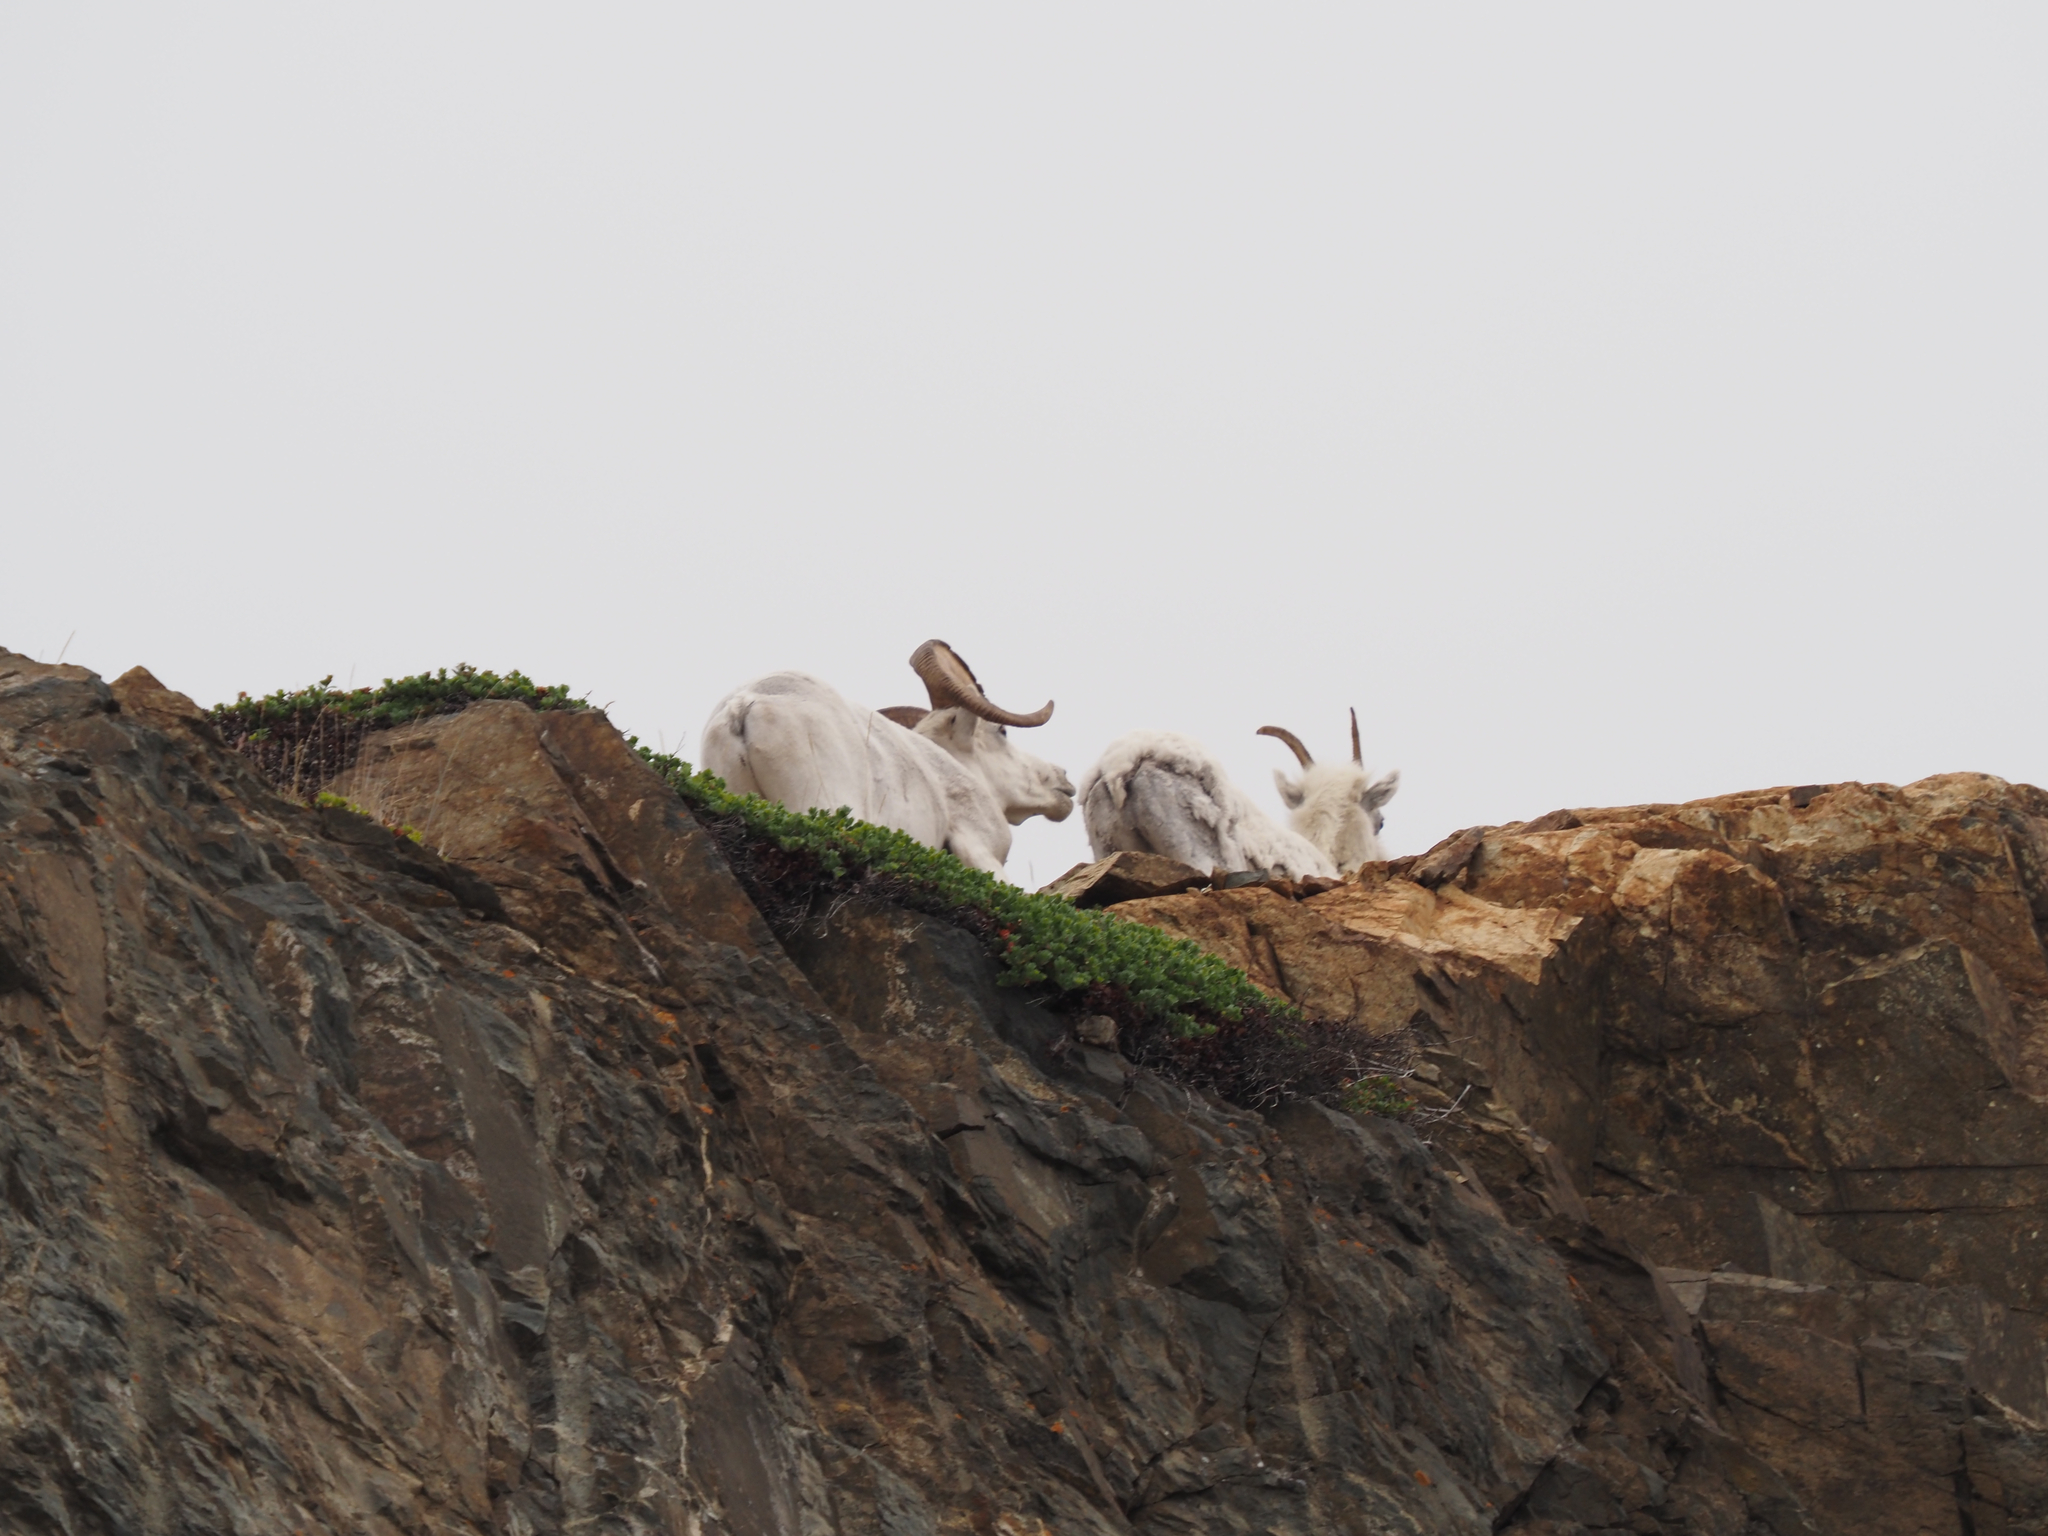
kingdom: Animalia
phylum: Chordata
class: Mammalia
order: Artiodactyla
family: Bovidae
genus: Ovis
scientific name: Ovis dalli
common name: Dall's sheep
